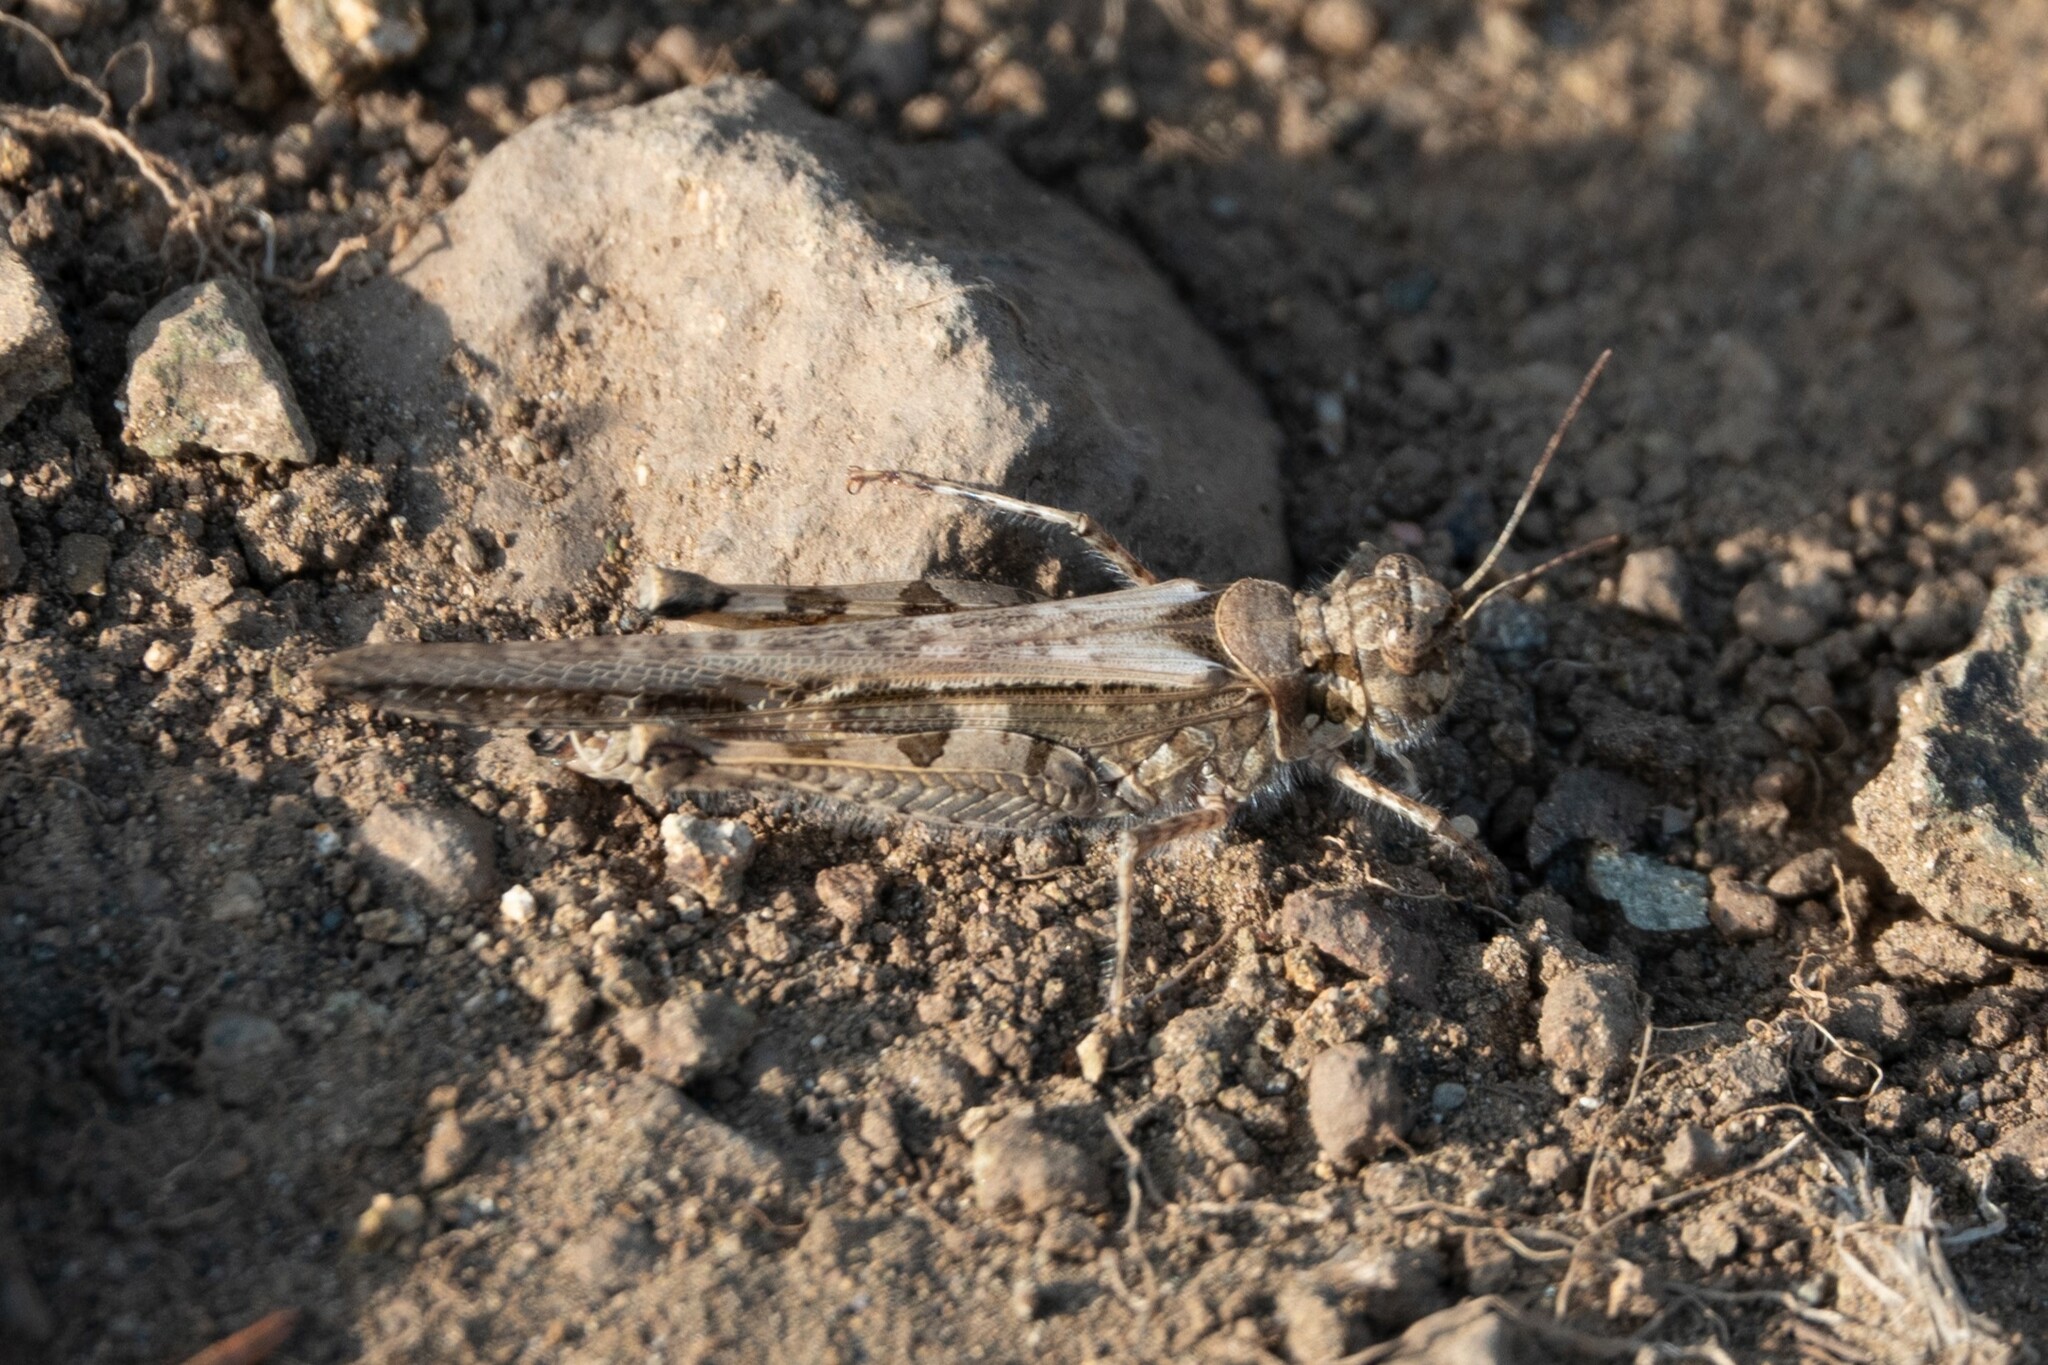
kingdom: Animalia
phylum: Arthropoda
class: Insecta
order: Orthoptera
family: Acrididae
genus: Acrotylus
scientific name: Acrotylus patruelis
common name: Slender burrowing grasshopper
